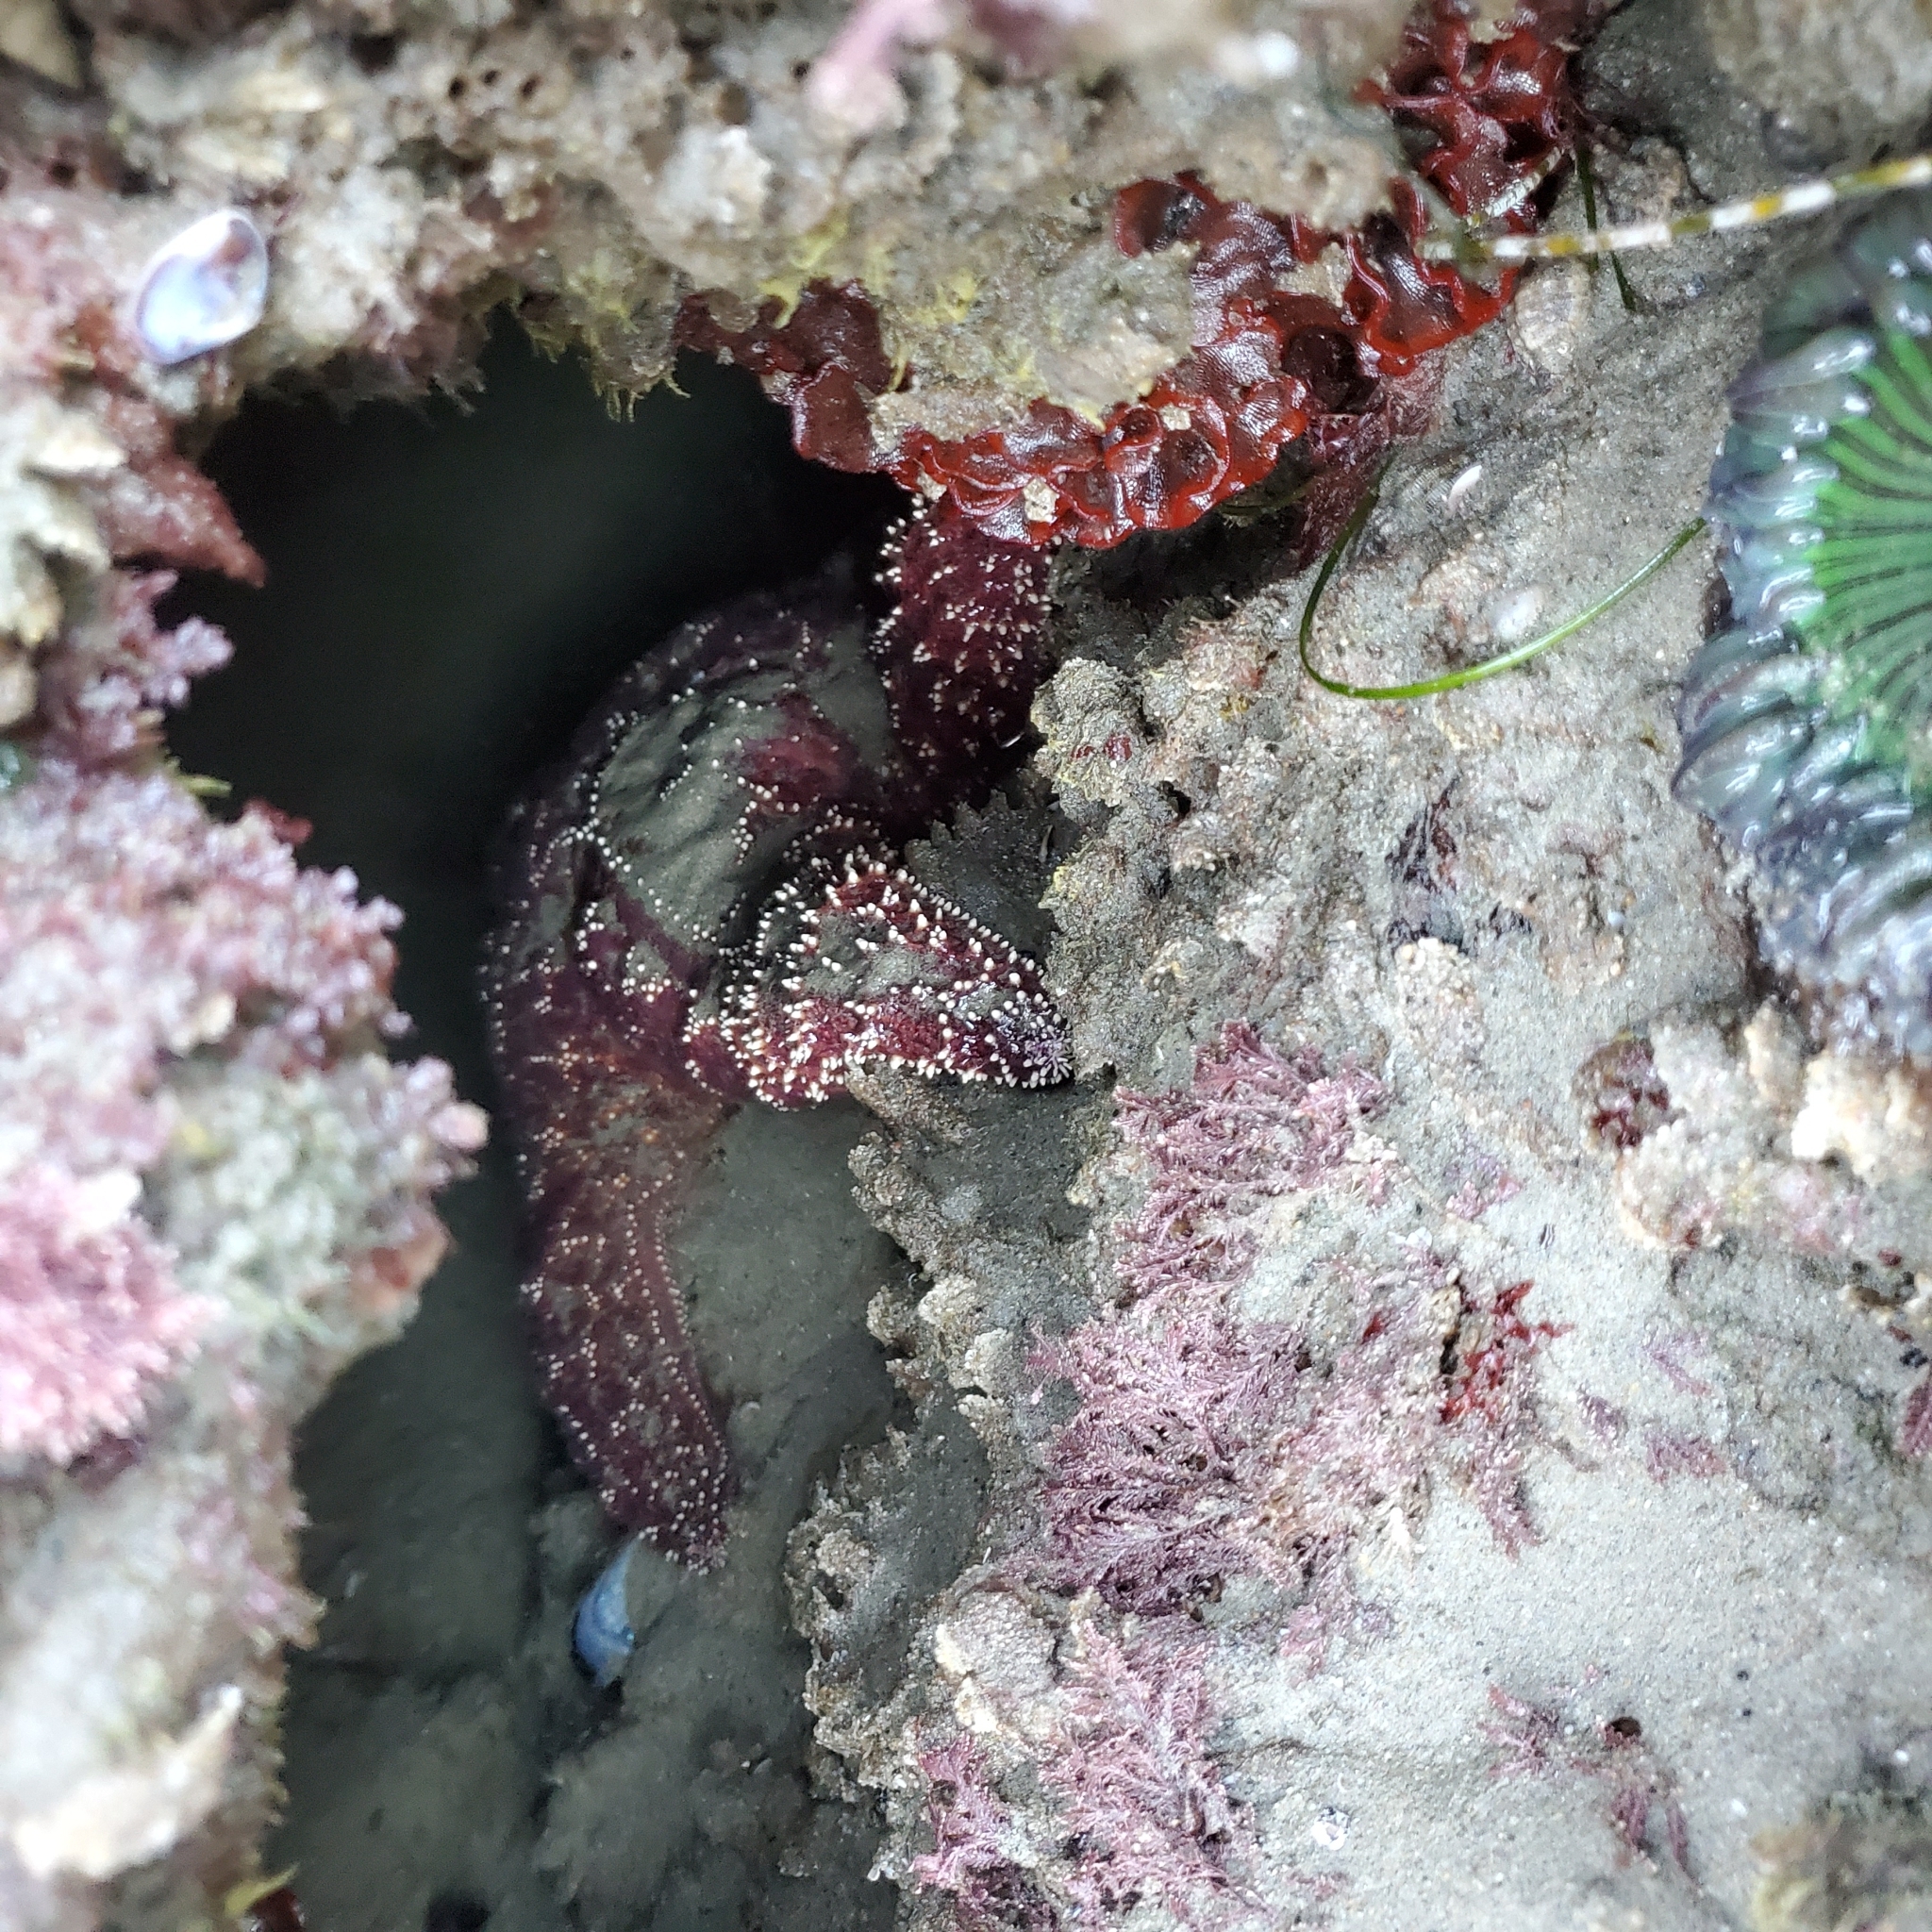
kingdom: Animalia
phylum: Echinodermata
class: Asteroidea
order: Forcipulatida
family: Asteriidae
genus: Pisaster
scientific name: Pisaster ochraceus
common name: Ochre stars
